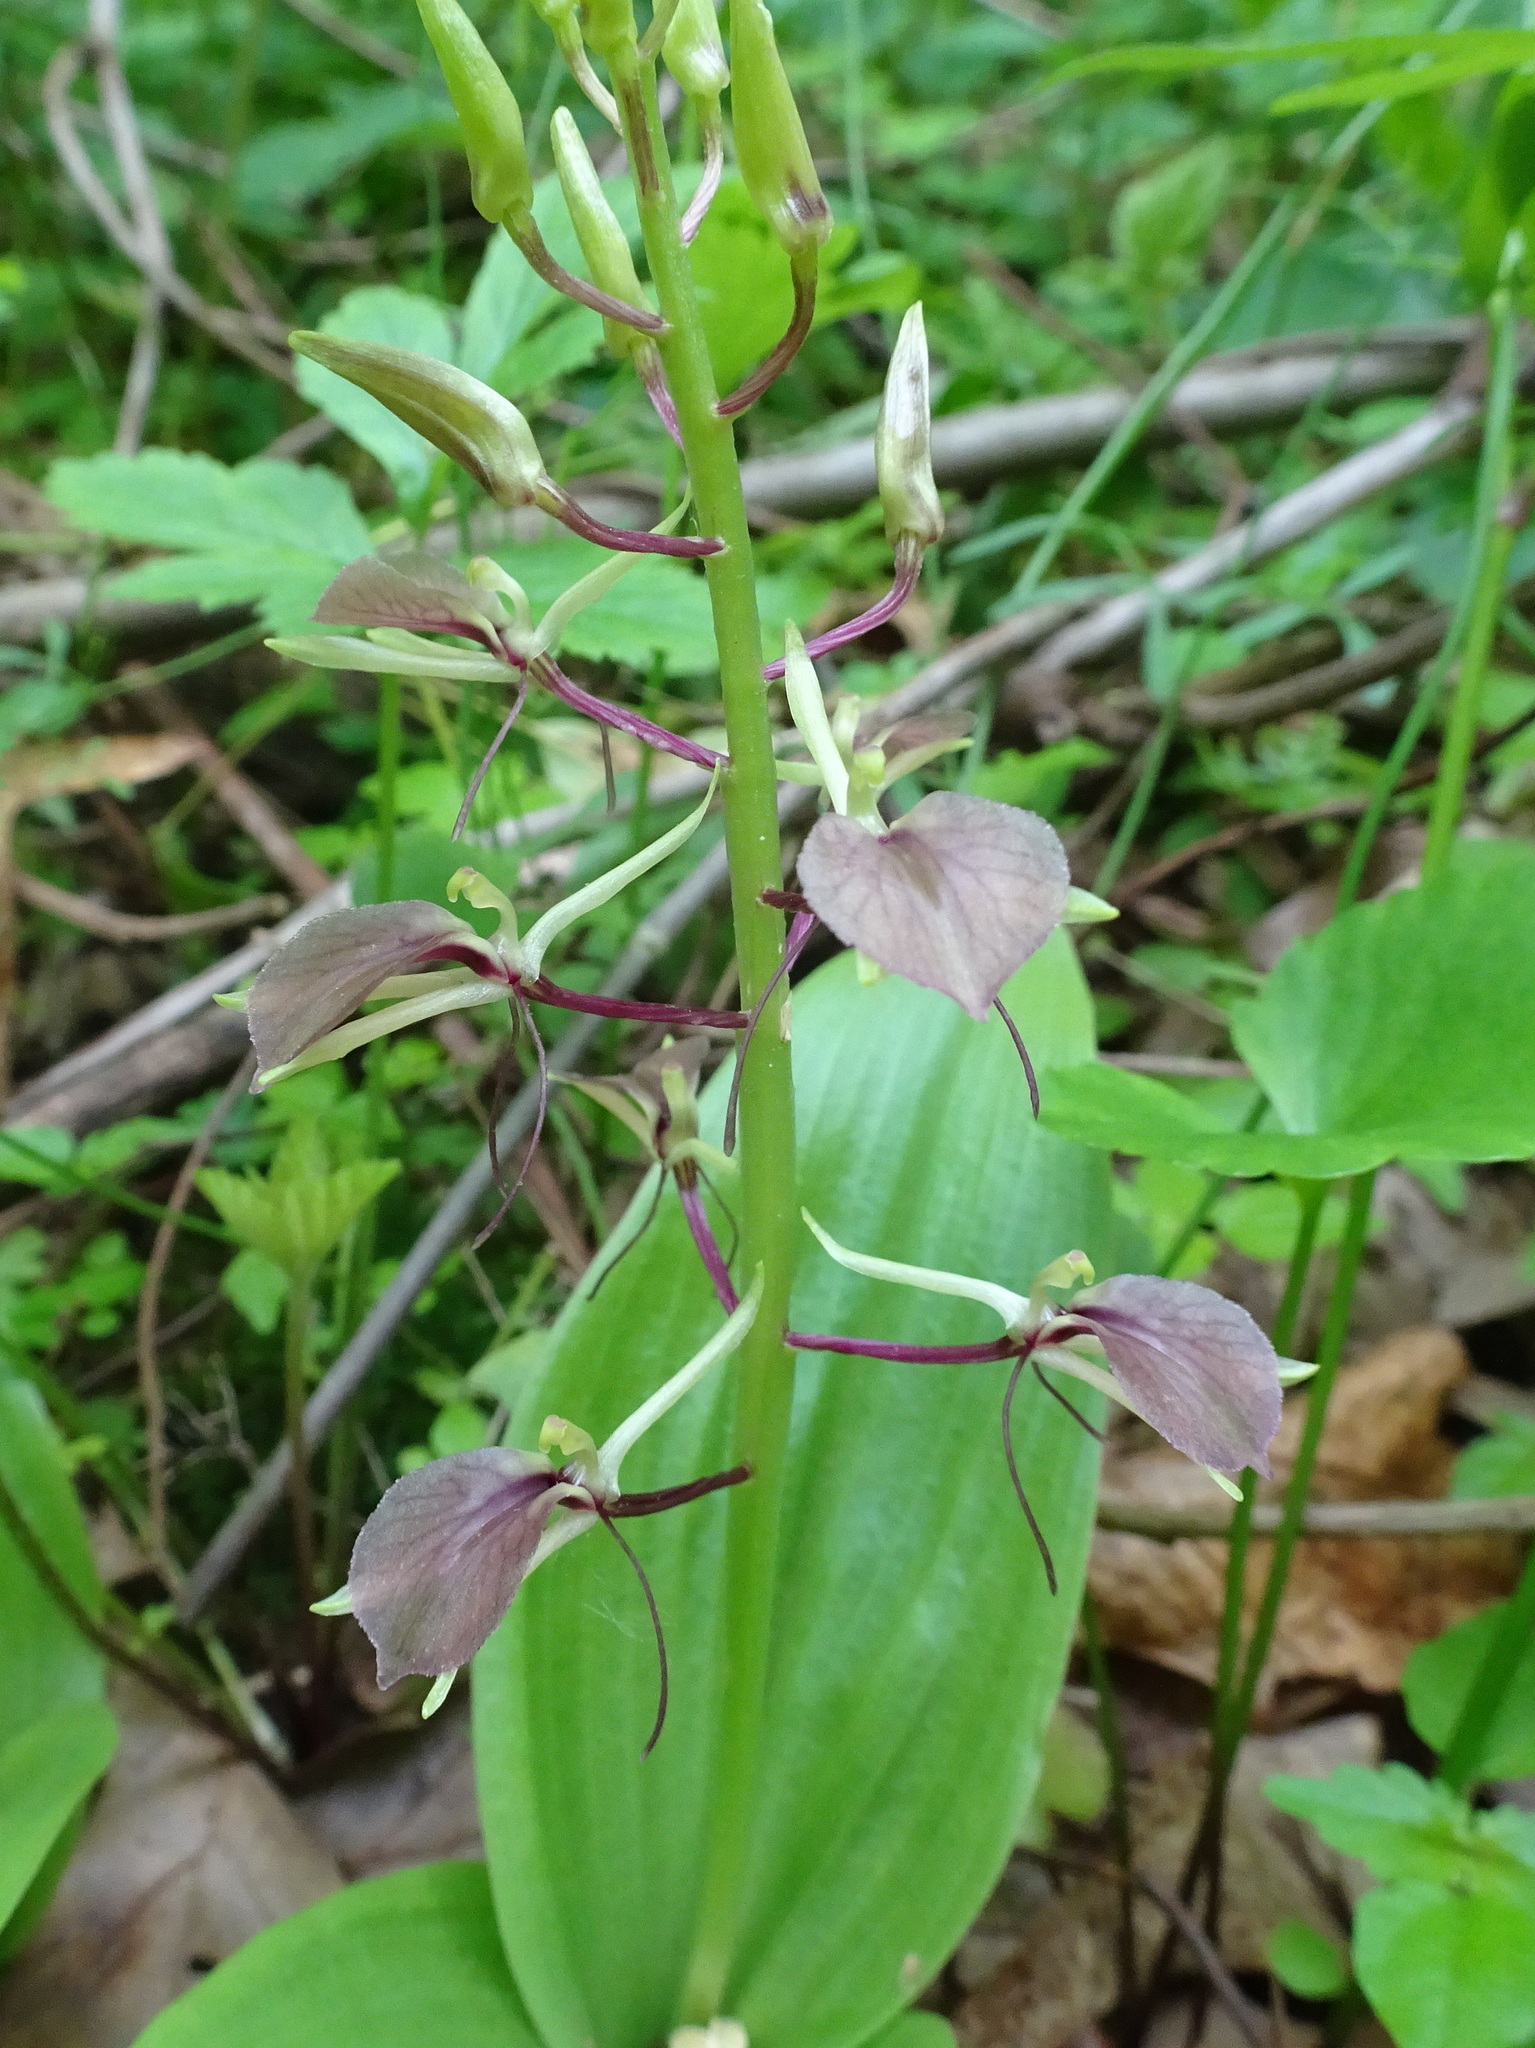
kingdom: Plantae
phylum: Tracheophyta
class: Liliopsida
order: Asparagales
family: Orchidaceae
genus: Liparis
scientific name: Liparis liliifolia
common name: Brown wide-lip orchid
